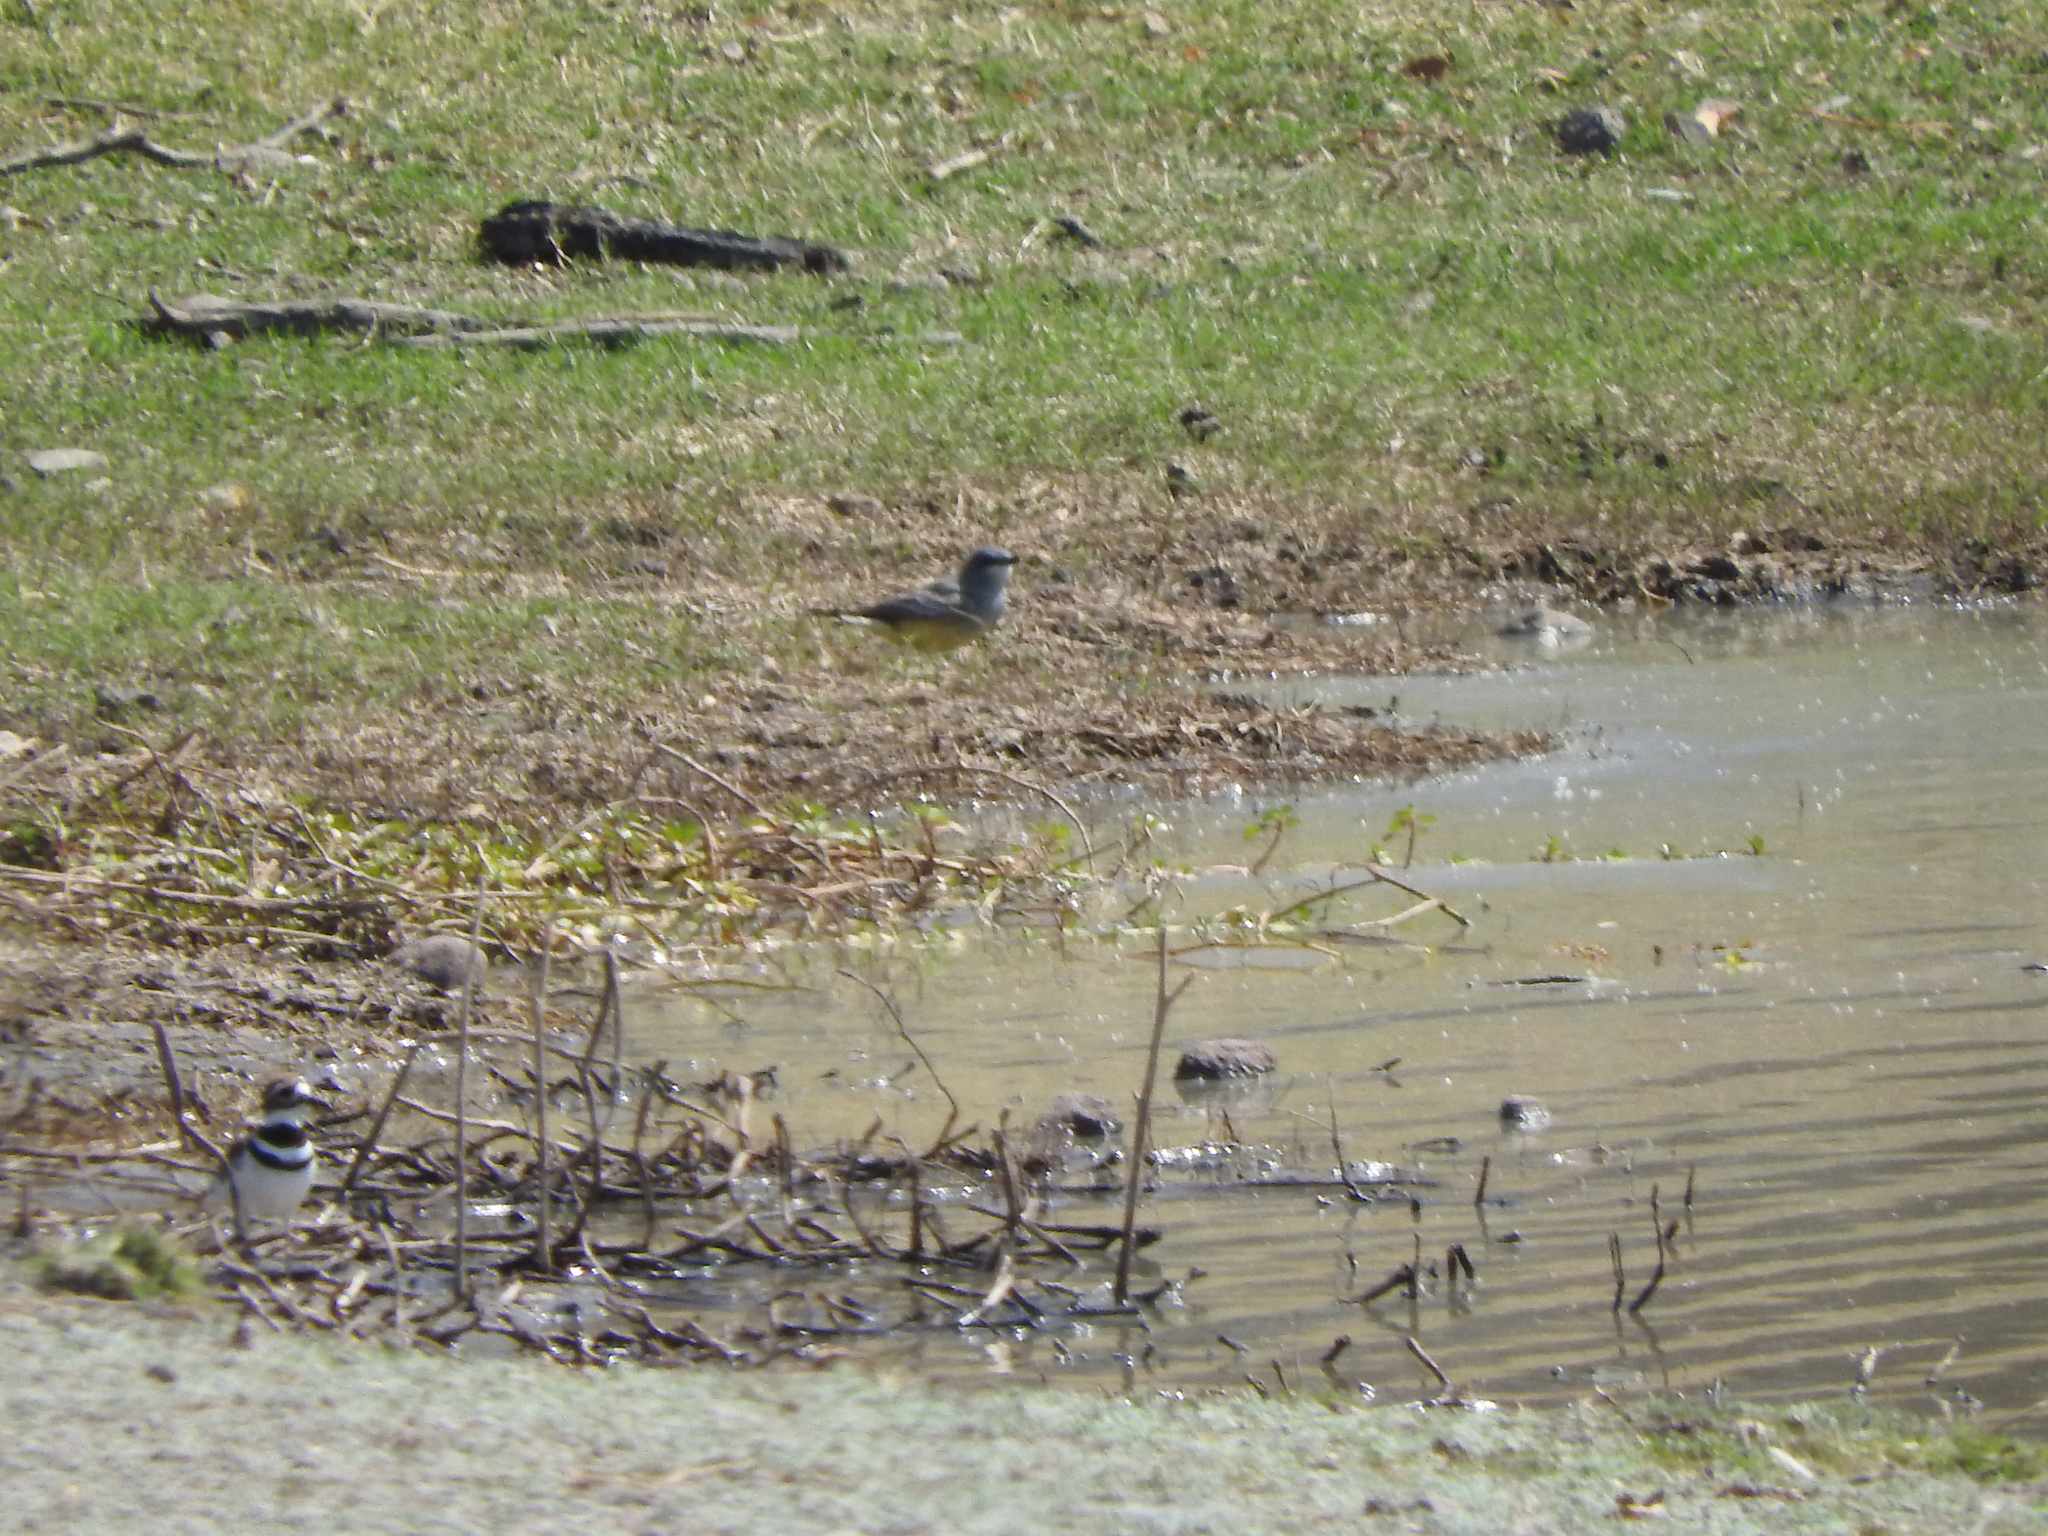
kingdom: Animalia
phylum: Chordata
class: Aves
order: Passeriformes
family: Tyrannidae
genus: Tyrannus
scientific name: Tyrannus vociferans
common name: Cassin's kingbird
